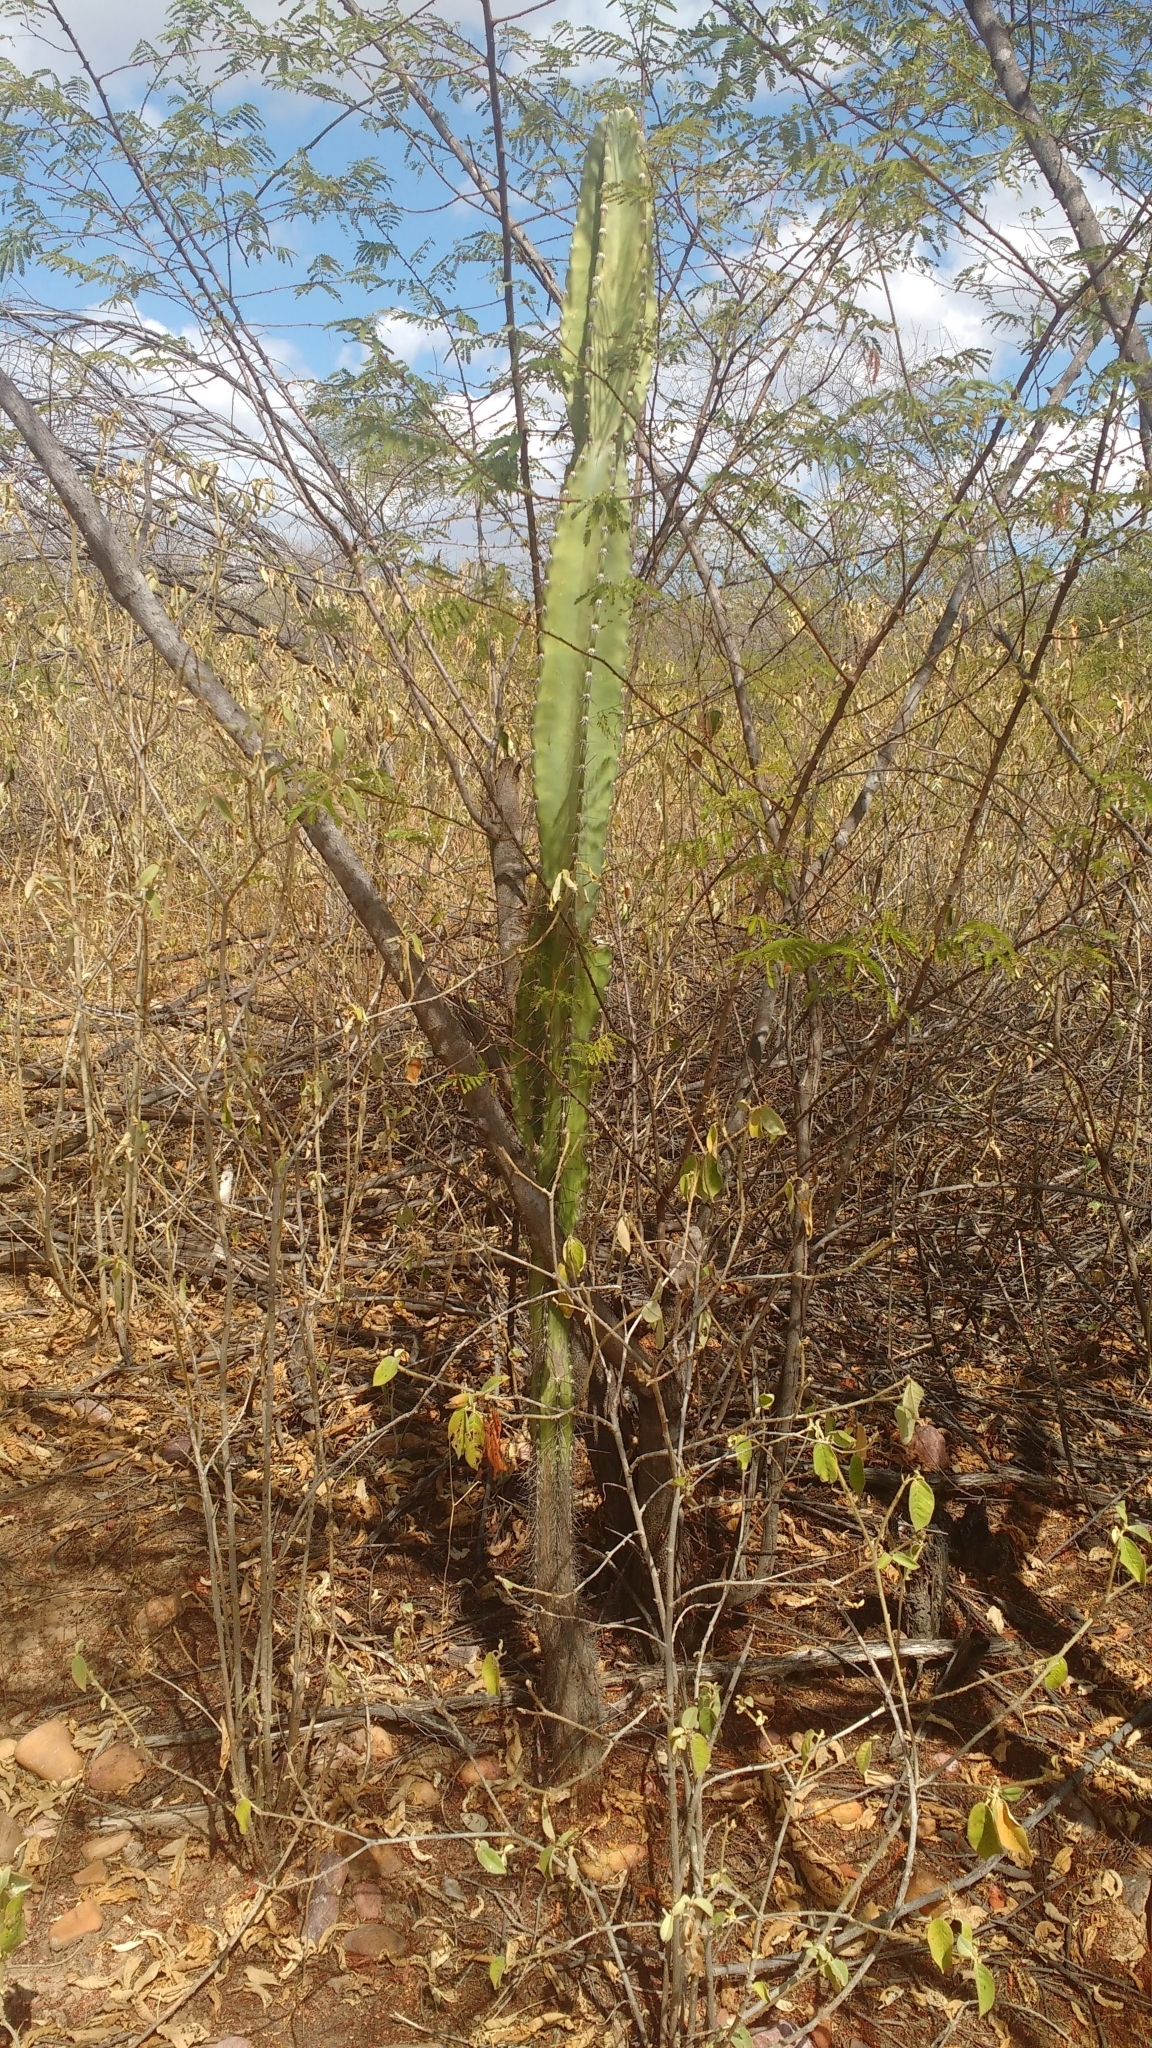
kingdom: Plantae
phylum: Tracheophyta
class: Magnoliopsida
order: Caryophyllales
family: Cactaceae
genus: Cereus
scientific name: Cereus jamacaru
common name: Queen-of-the-night
